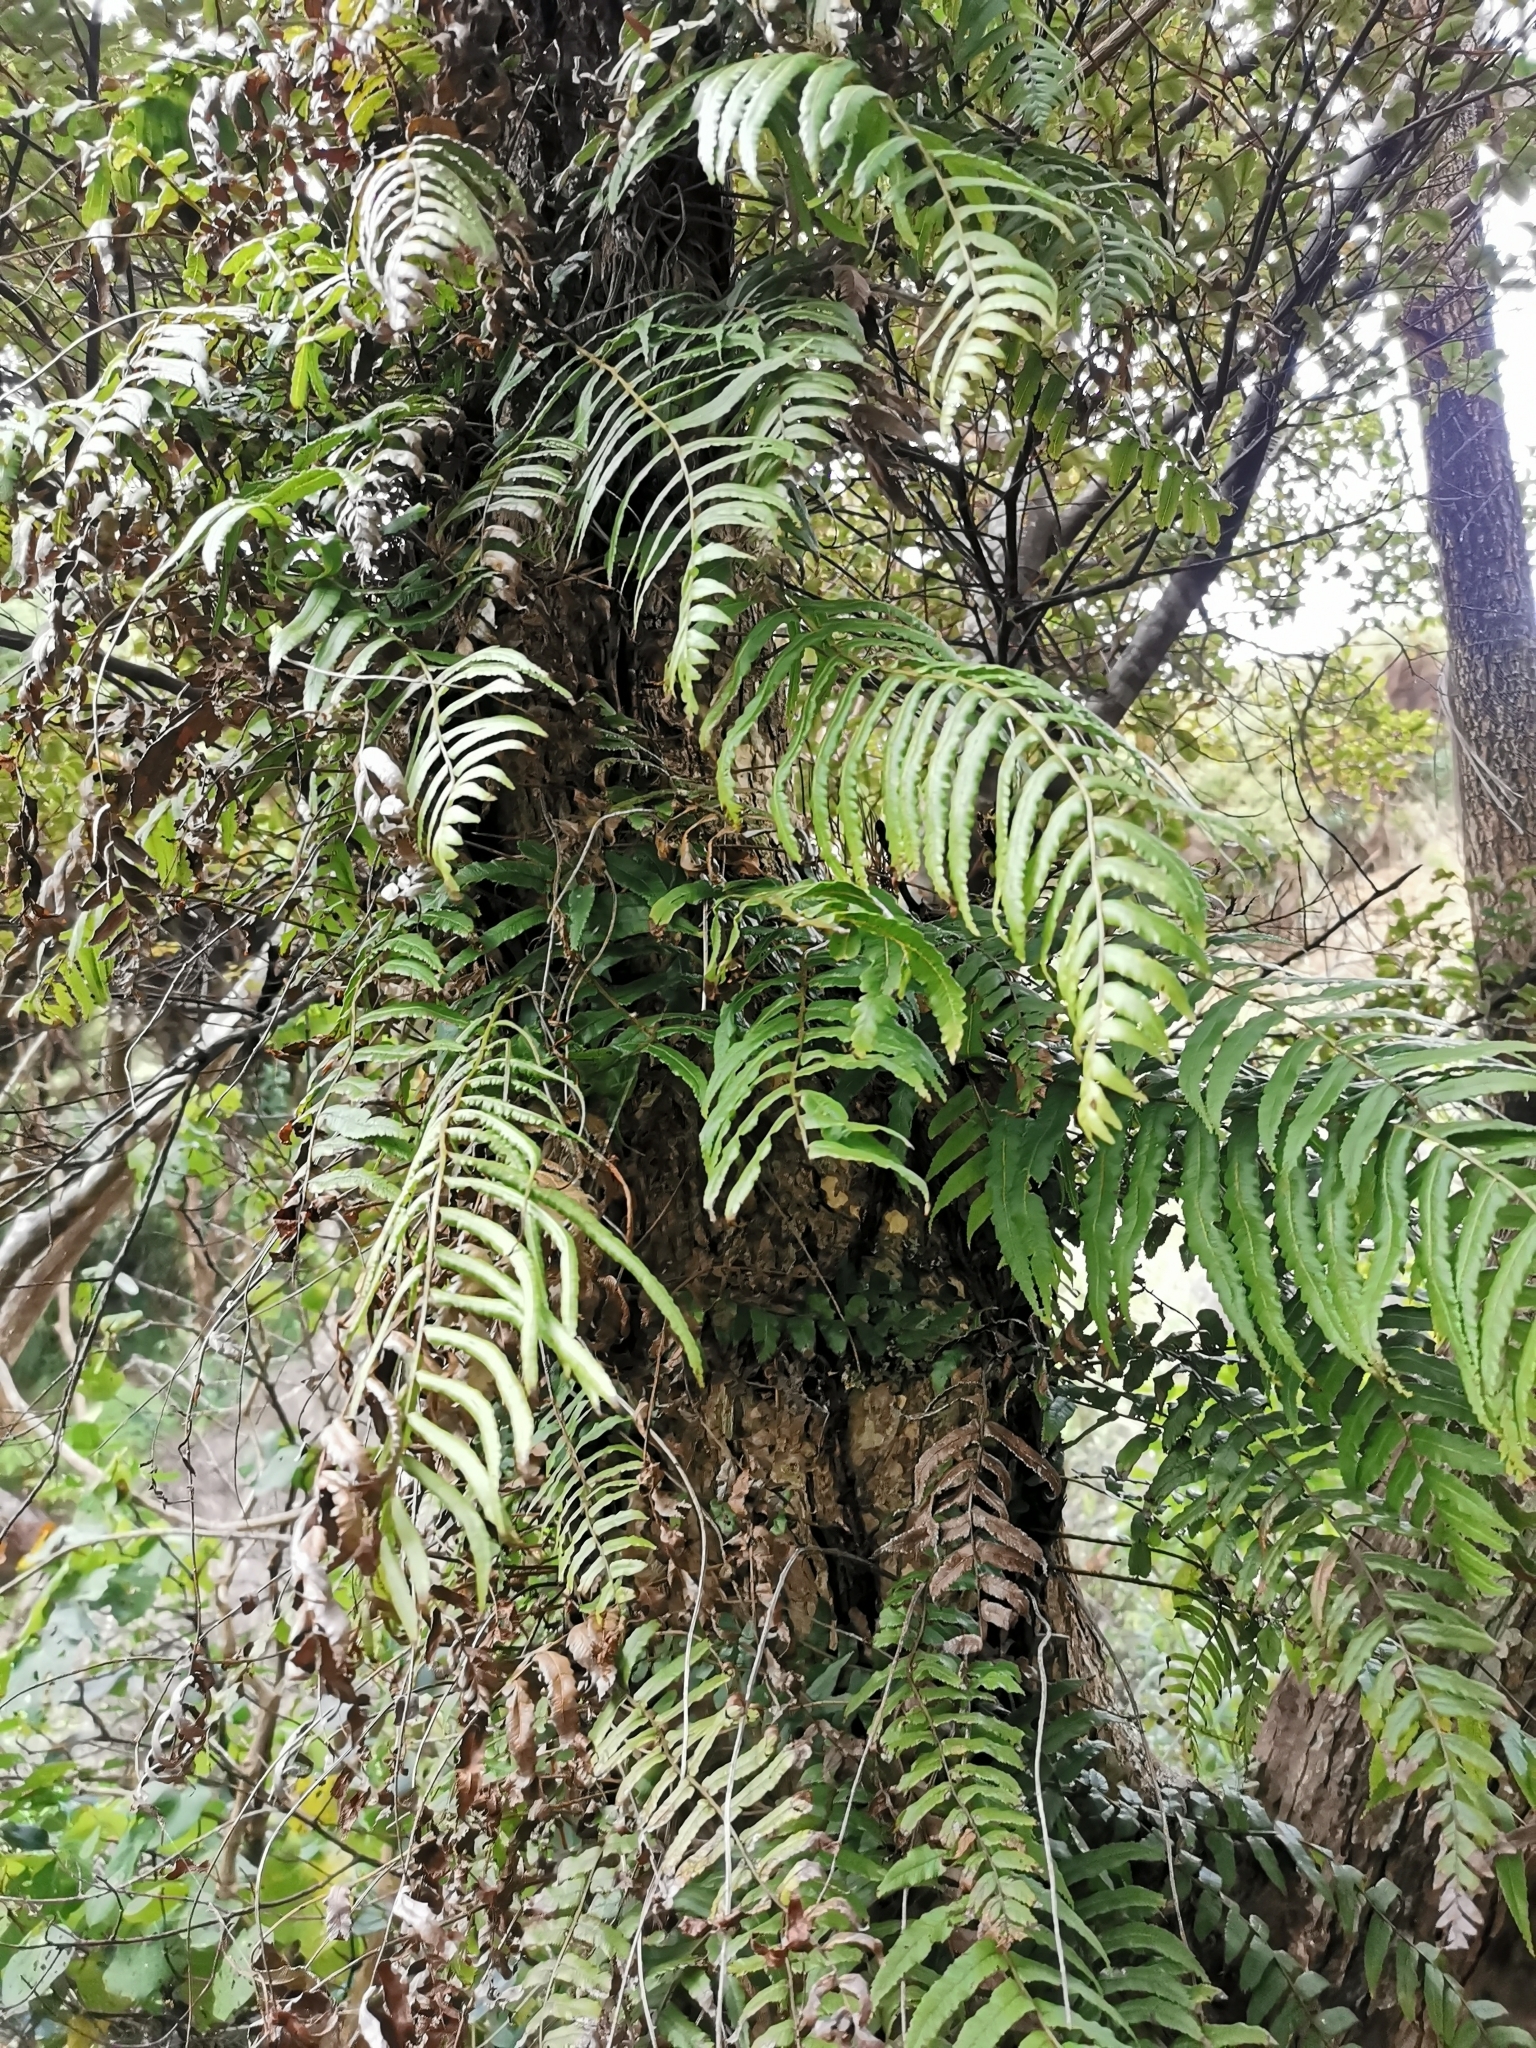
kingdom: Plantae
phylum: Tracheophyta
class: Polypodiopsida
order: Polypodiales
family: Blechnaceae
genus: Icarus
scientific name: Icarus filiformis
